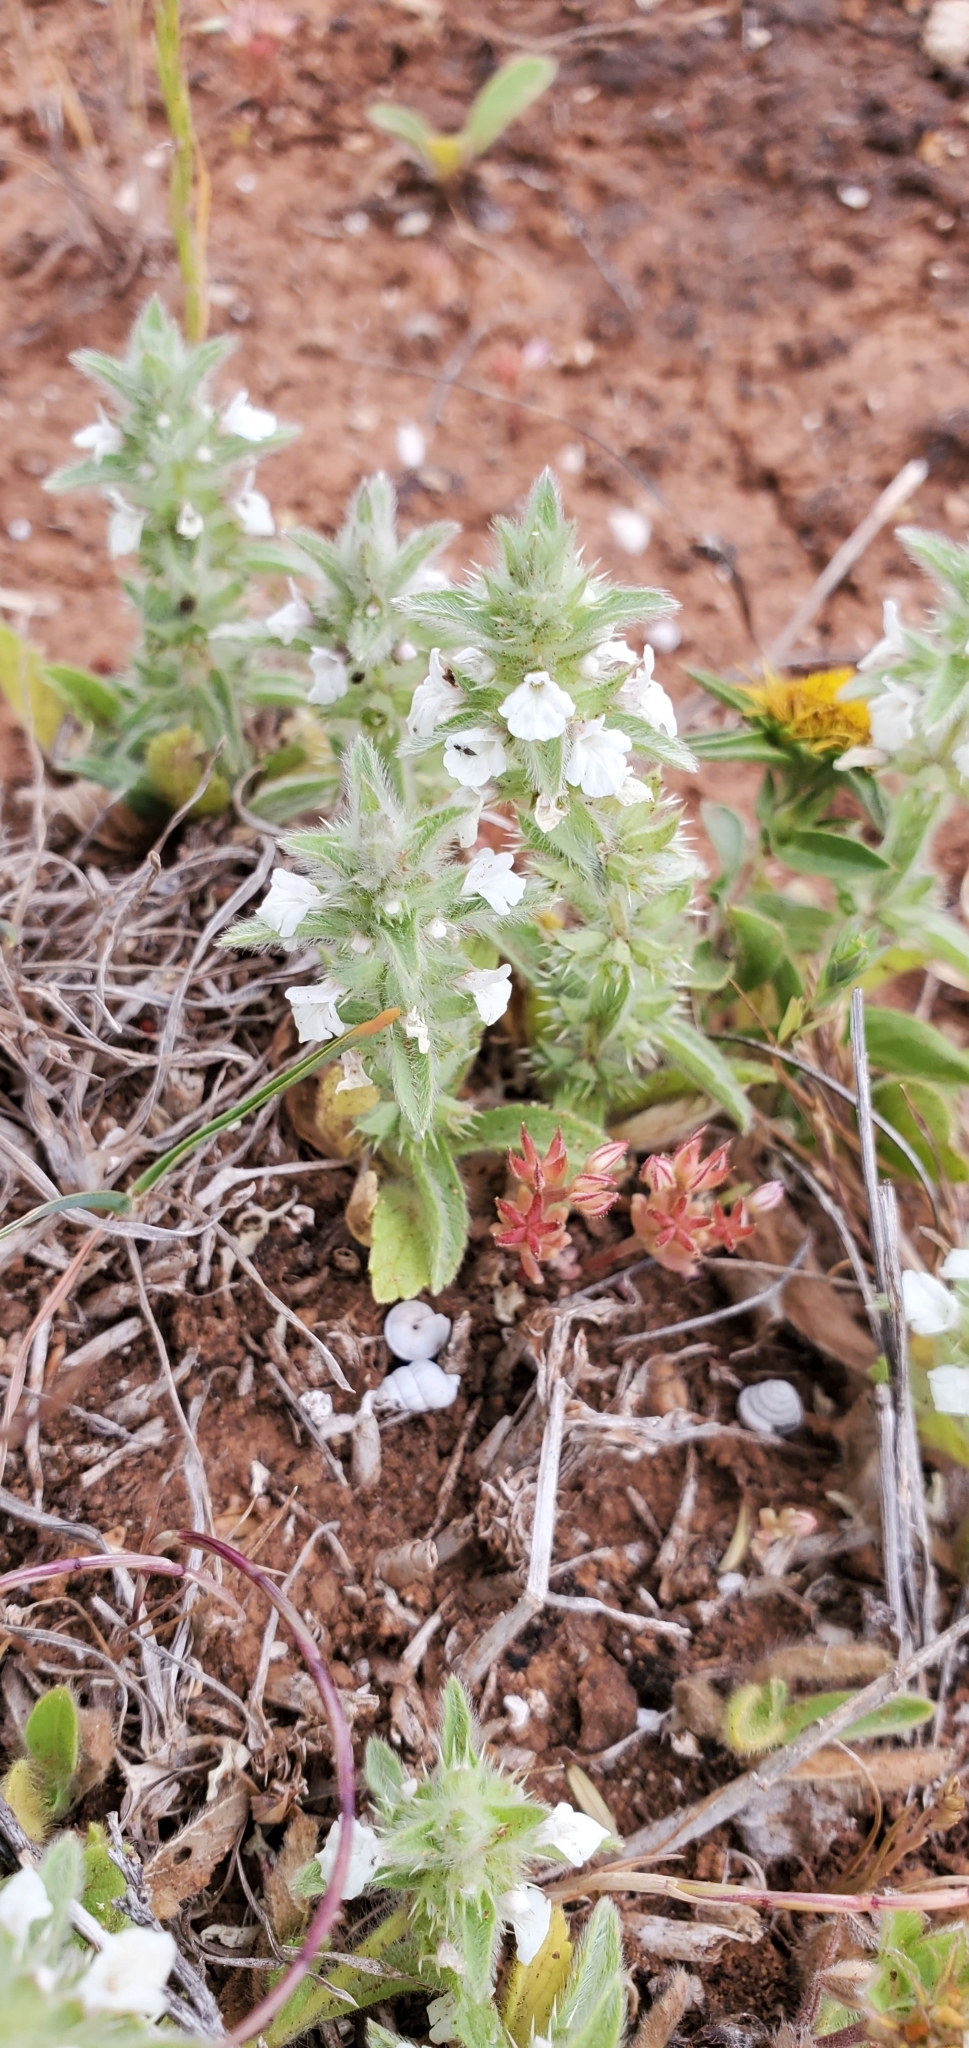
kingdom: Plantae
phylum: Tracheophyta
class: Magnoliopsida
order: Lamiales
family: Lamiaceae
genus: Sideritis
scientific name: Sideritis romana
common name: Simplebeak ironwort
